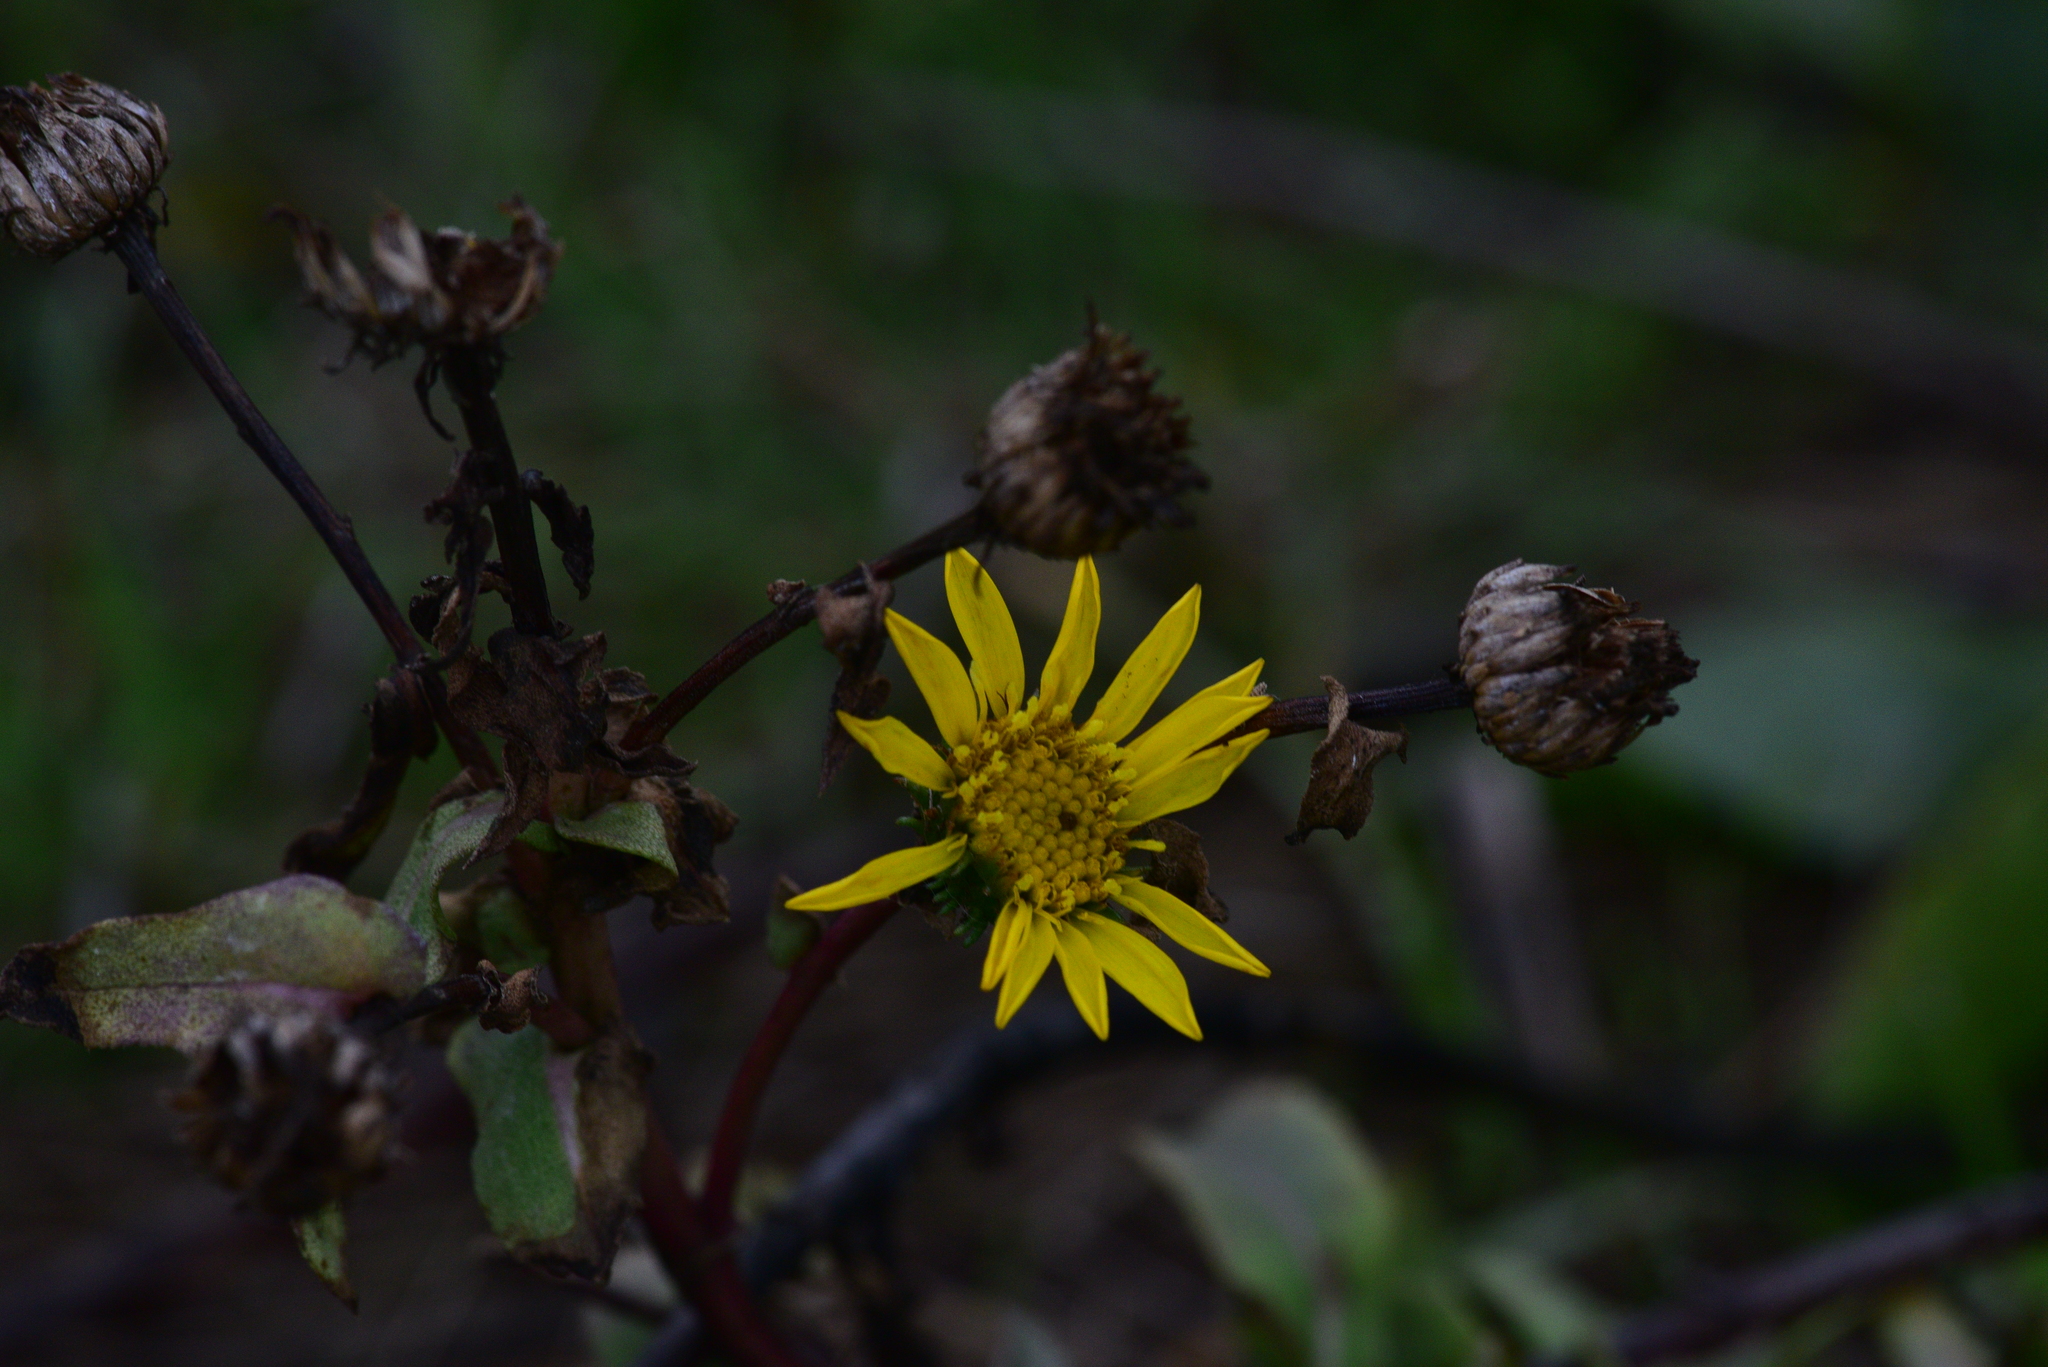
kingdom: Plantae
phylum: Tracheophyta
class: Magnoliopsida
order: Asterales
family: Asteraceae
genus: Grindelia
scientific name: Grindelia hirsutula
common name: Hairy gumweed
